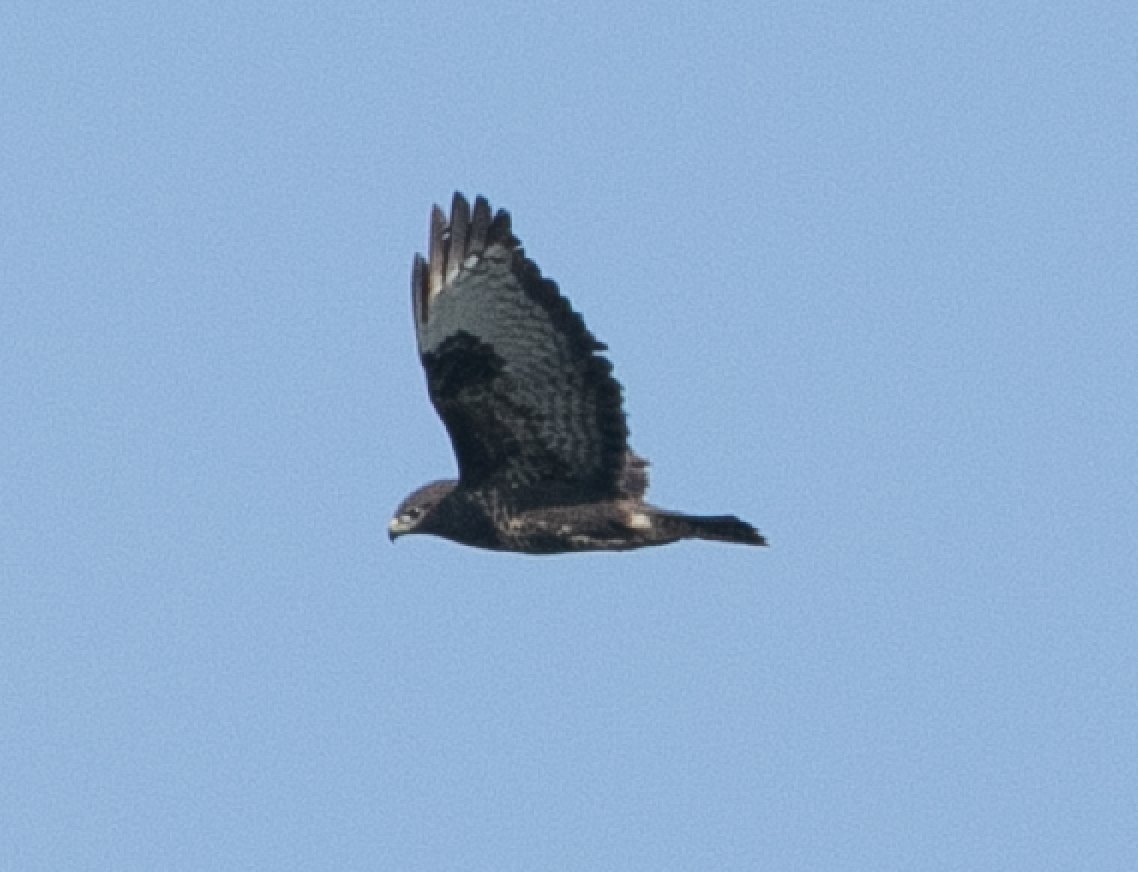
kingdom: Animalia
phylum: Chordata
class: Aves
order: Accipitriformes
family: Accipitridae
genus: Buteo
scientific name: Buteo buteo
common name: Common buzzard
